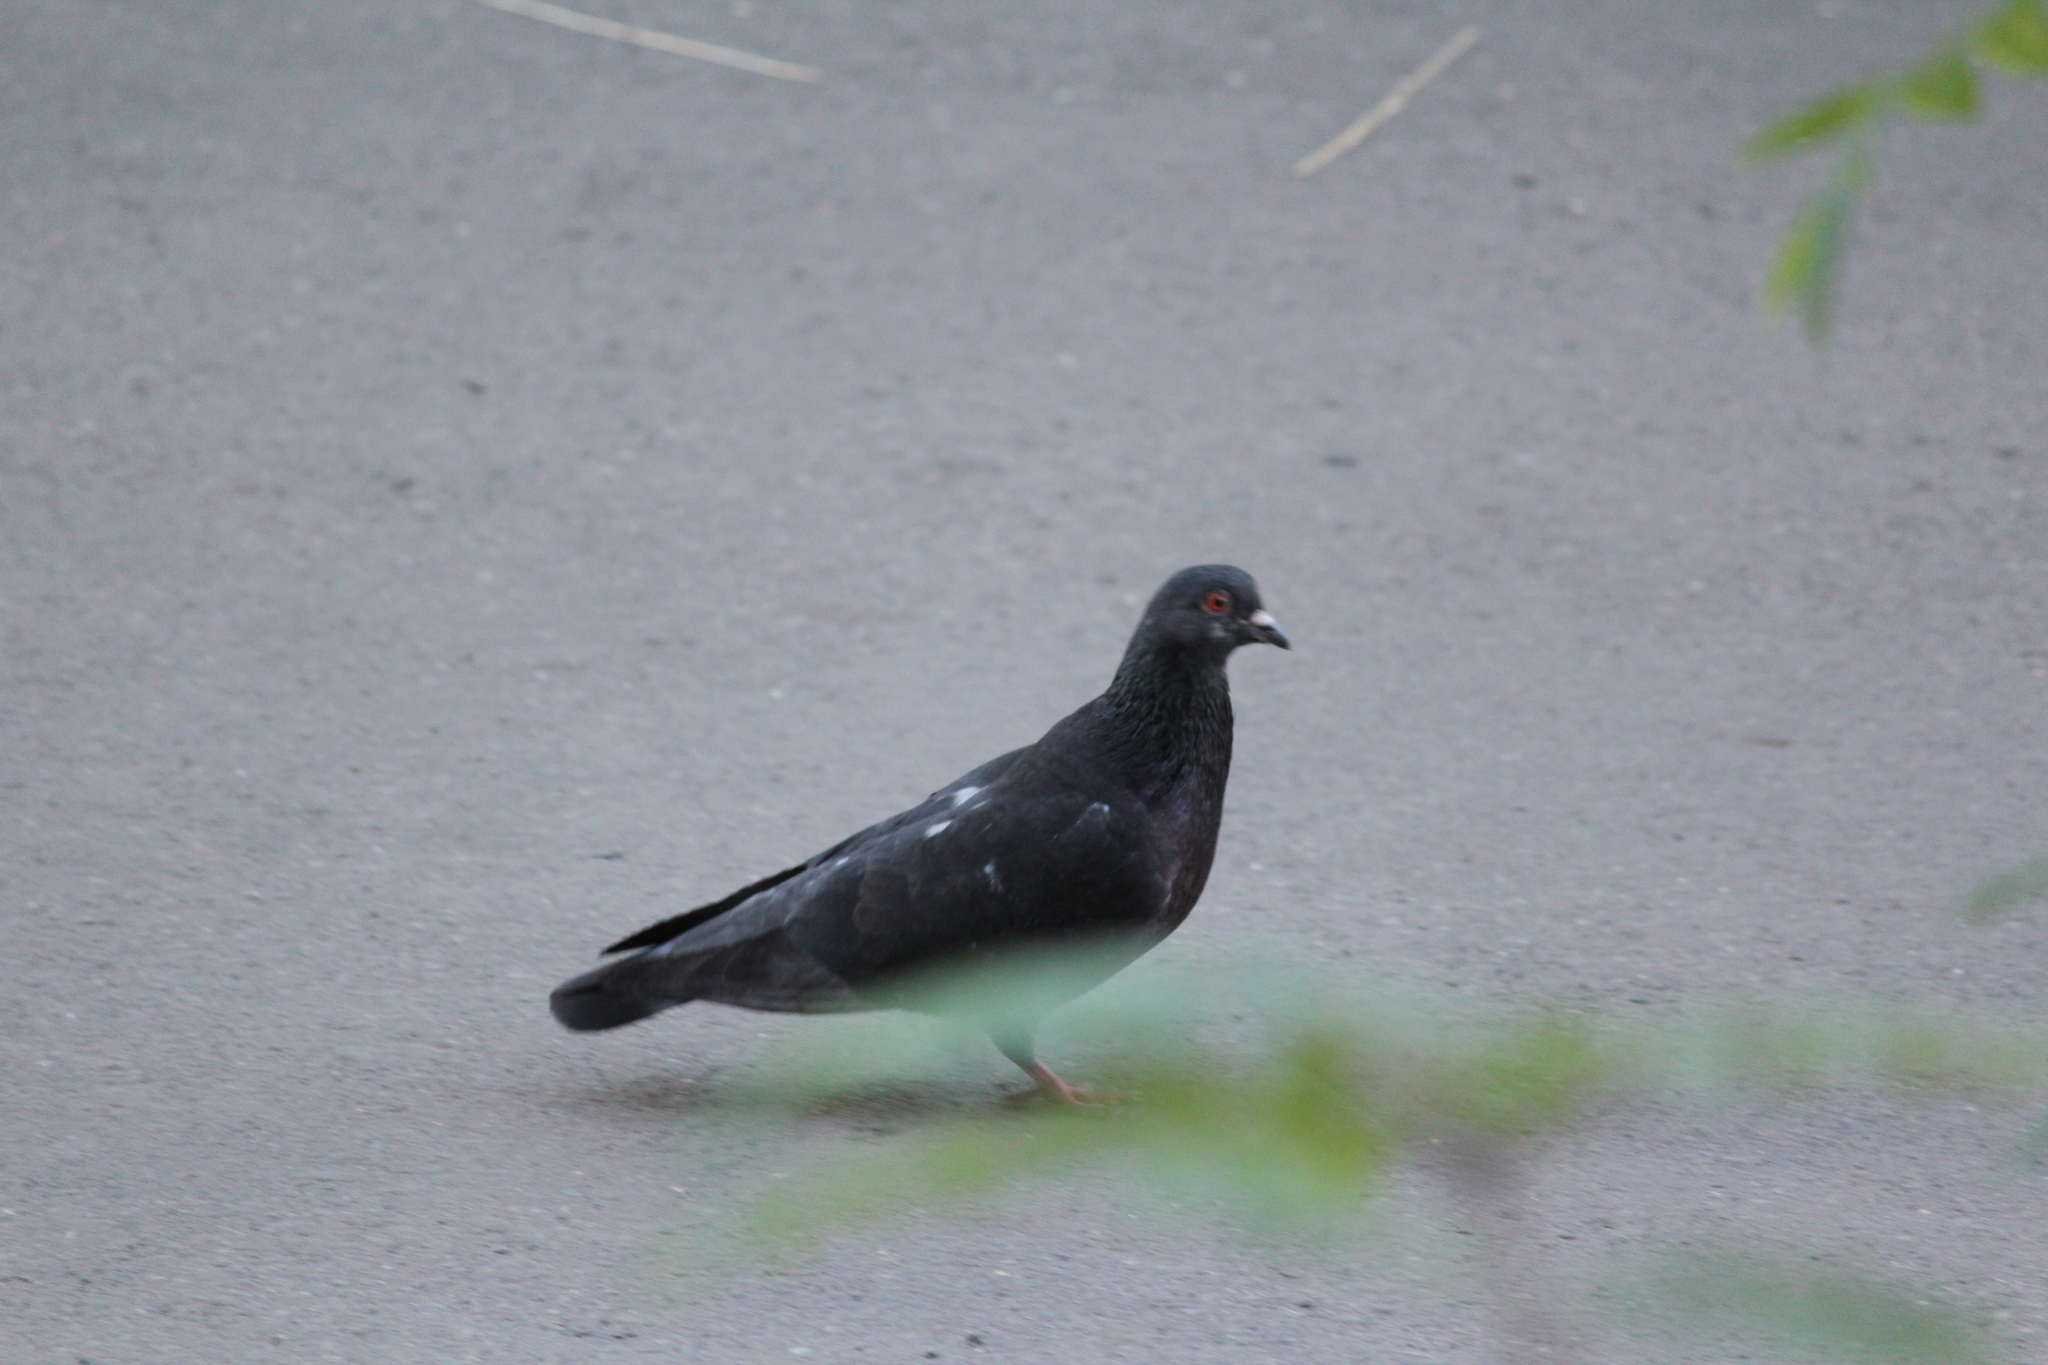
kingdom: Animalia
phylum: Chordata
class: Aves
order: Columbiformes
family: Columbidae
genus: Columba
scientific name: Columba livia
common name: Rock pigeon
